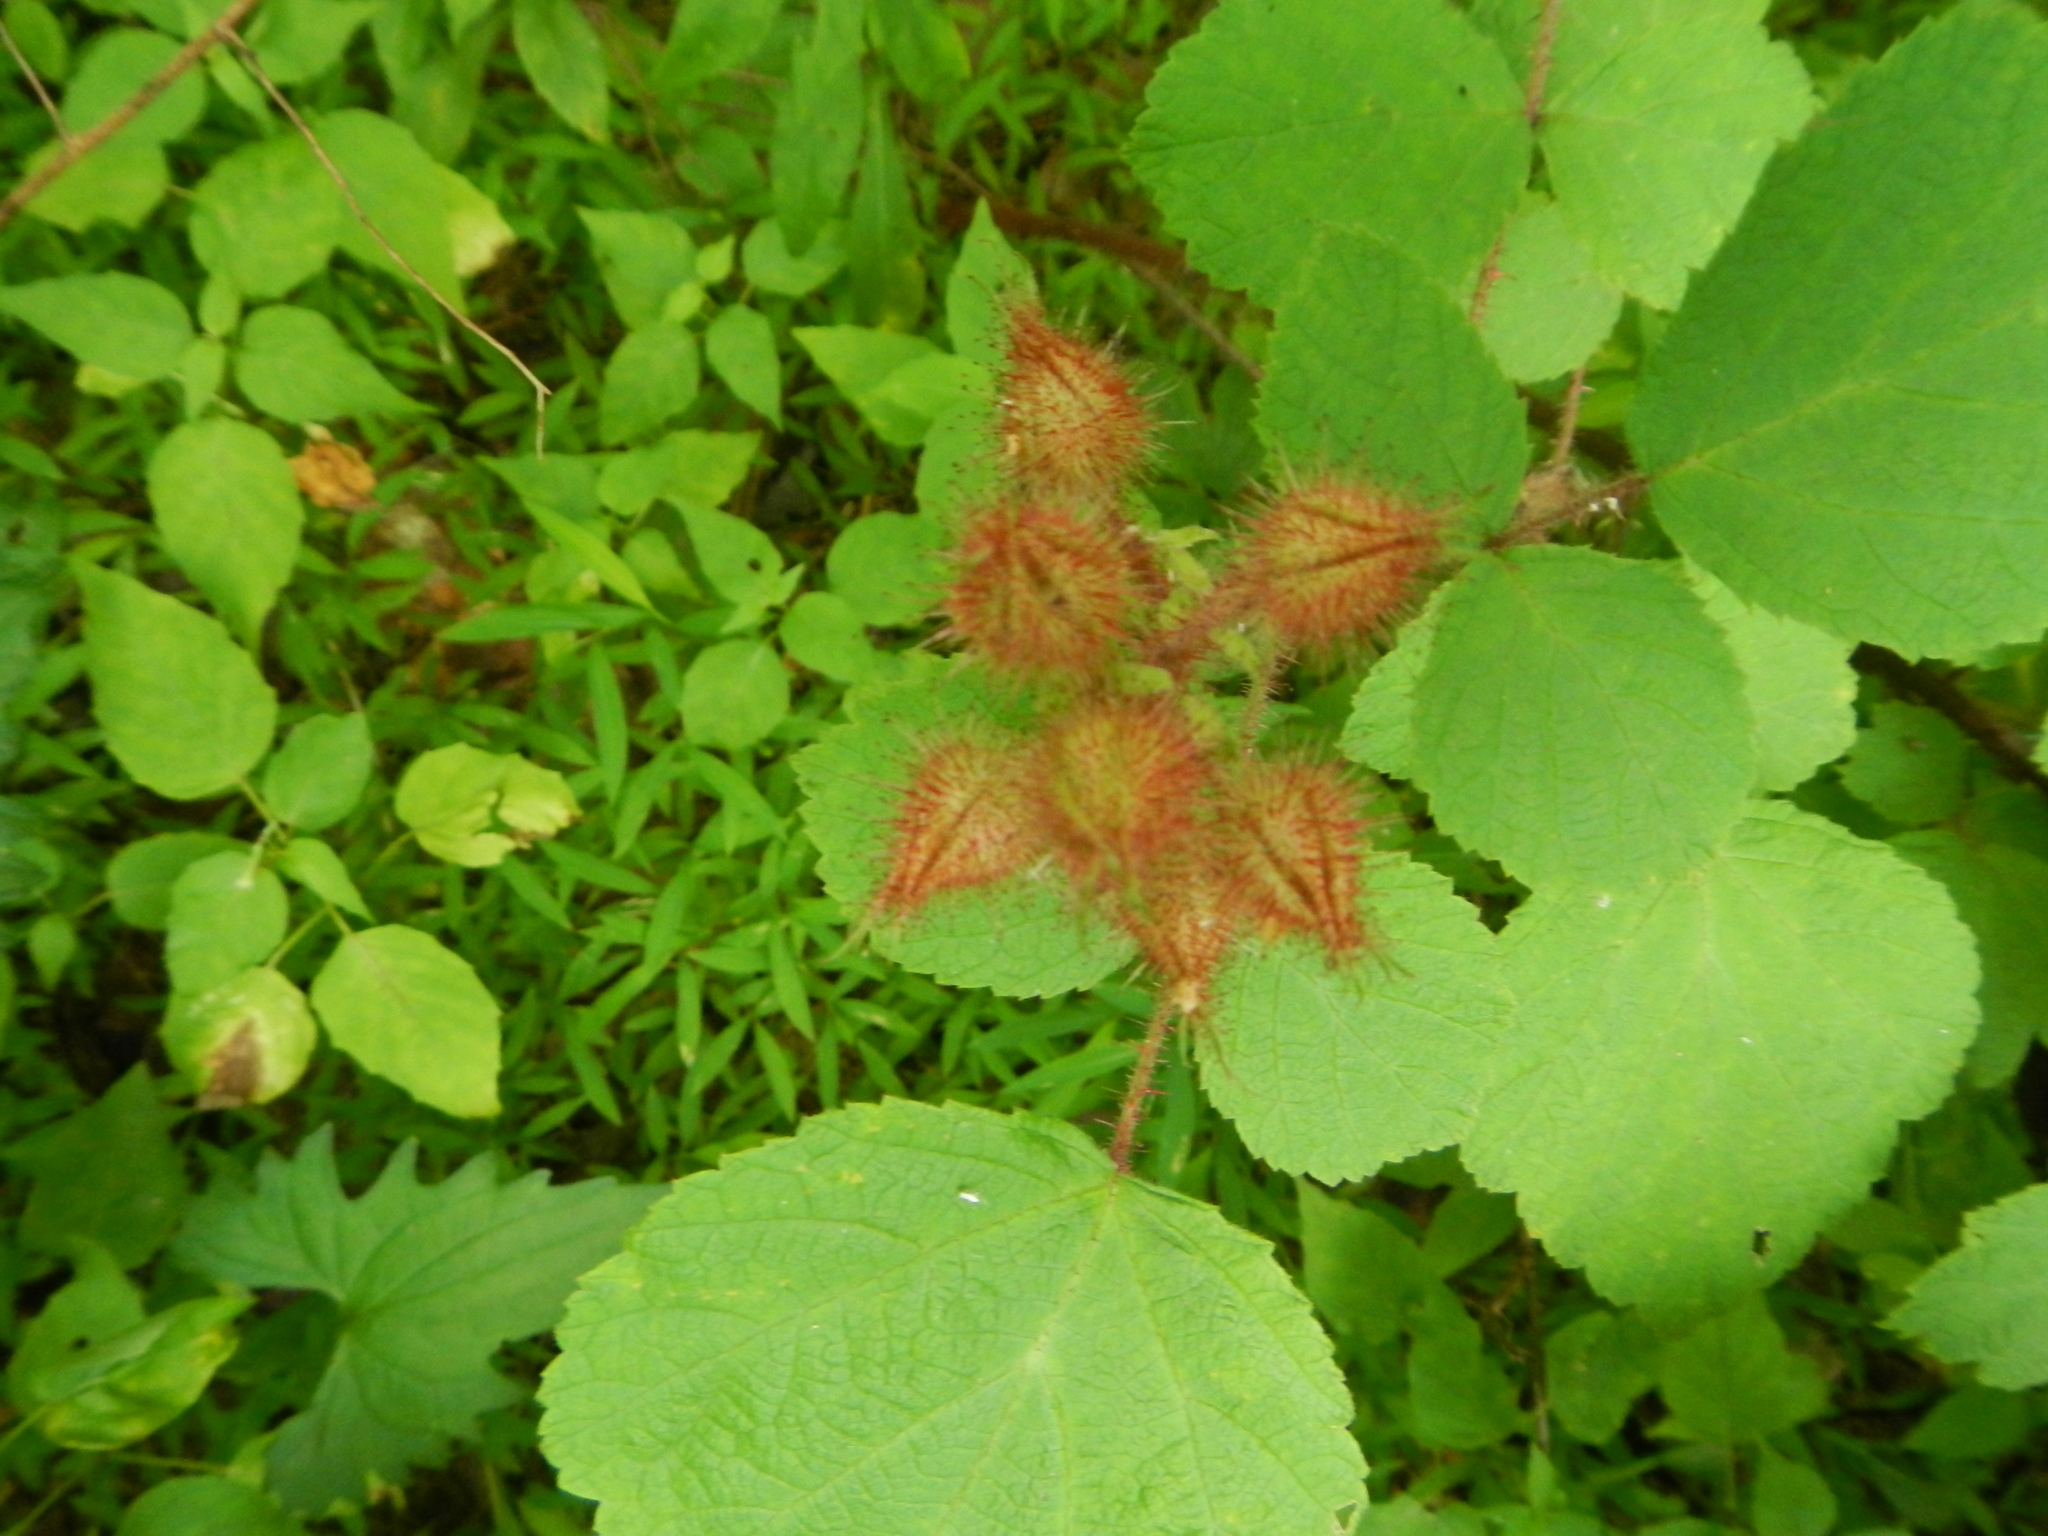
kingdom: Plantae
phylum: Tracheophyta
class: Magnoliopsida
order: Rosales
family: Rosaceae
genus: Rubus
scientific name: Rubus phoenicolasius
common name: Japanese wineberry
